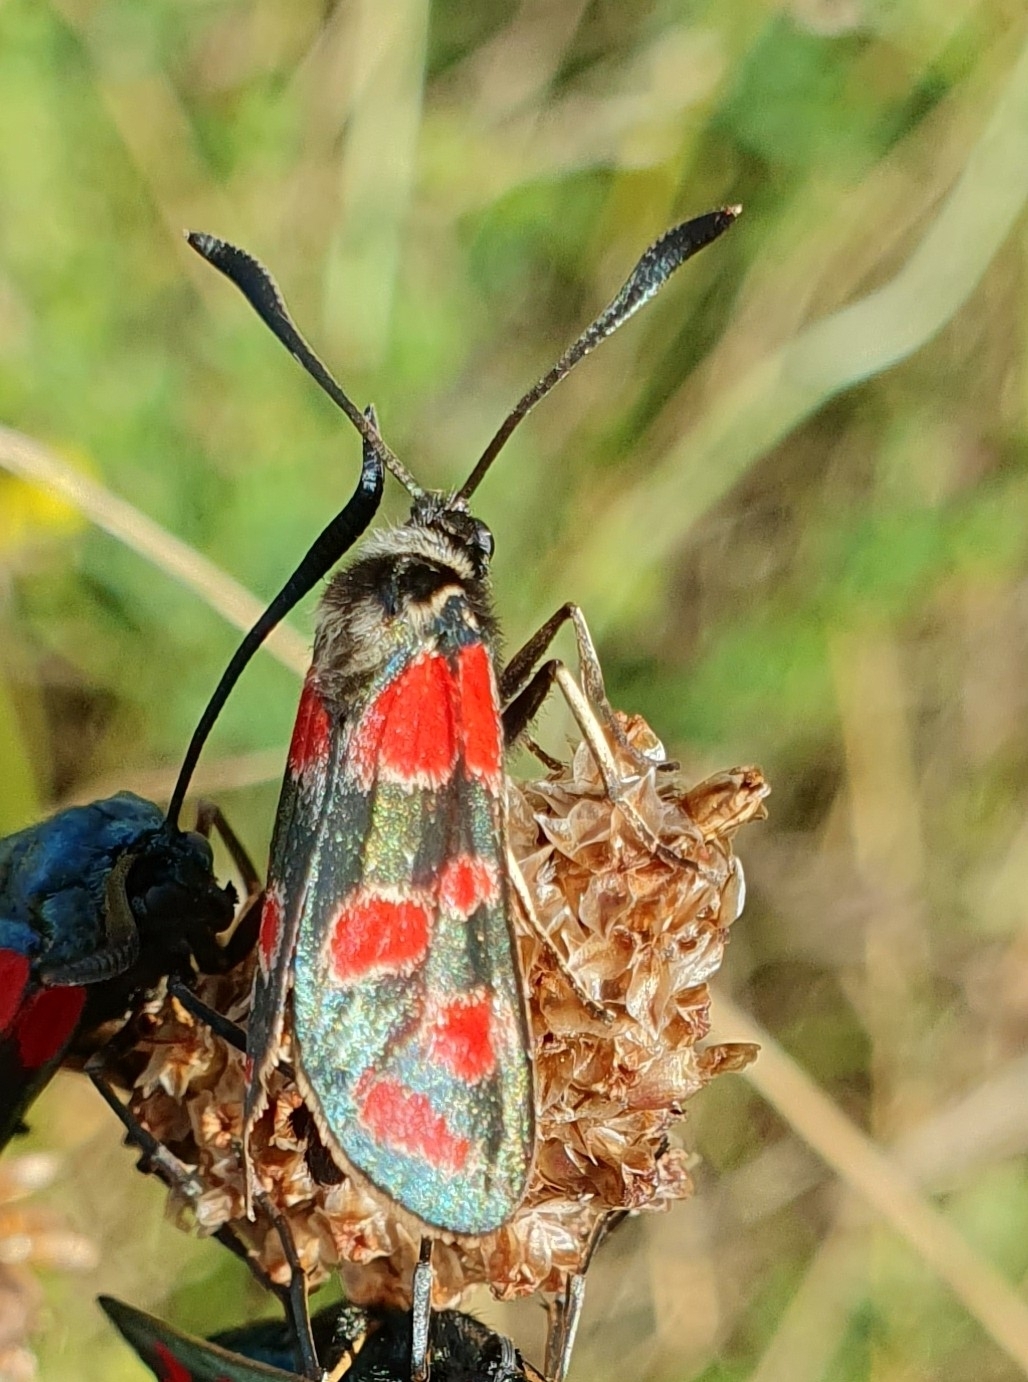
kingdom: Animalia
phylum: Arthropoda
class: Insecta
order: Lepidoptera
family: Zygaenidae
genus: Zygaena
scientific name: Zygaena carniolica
